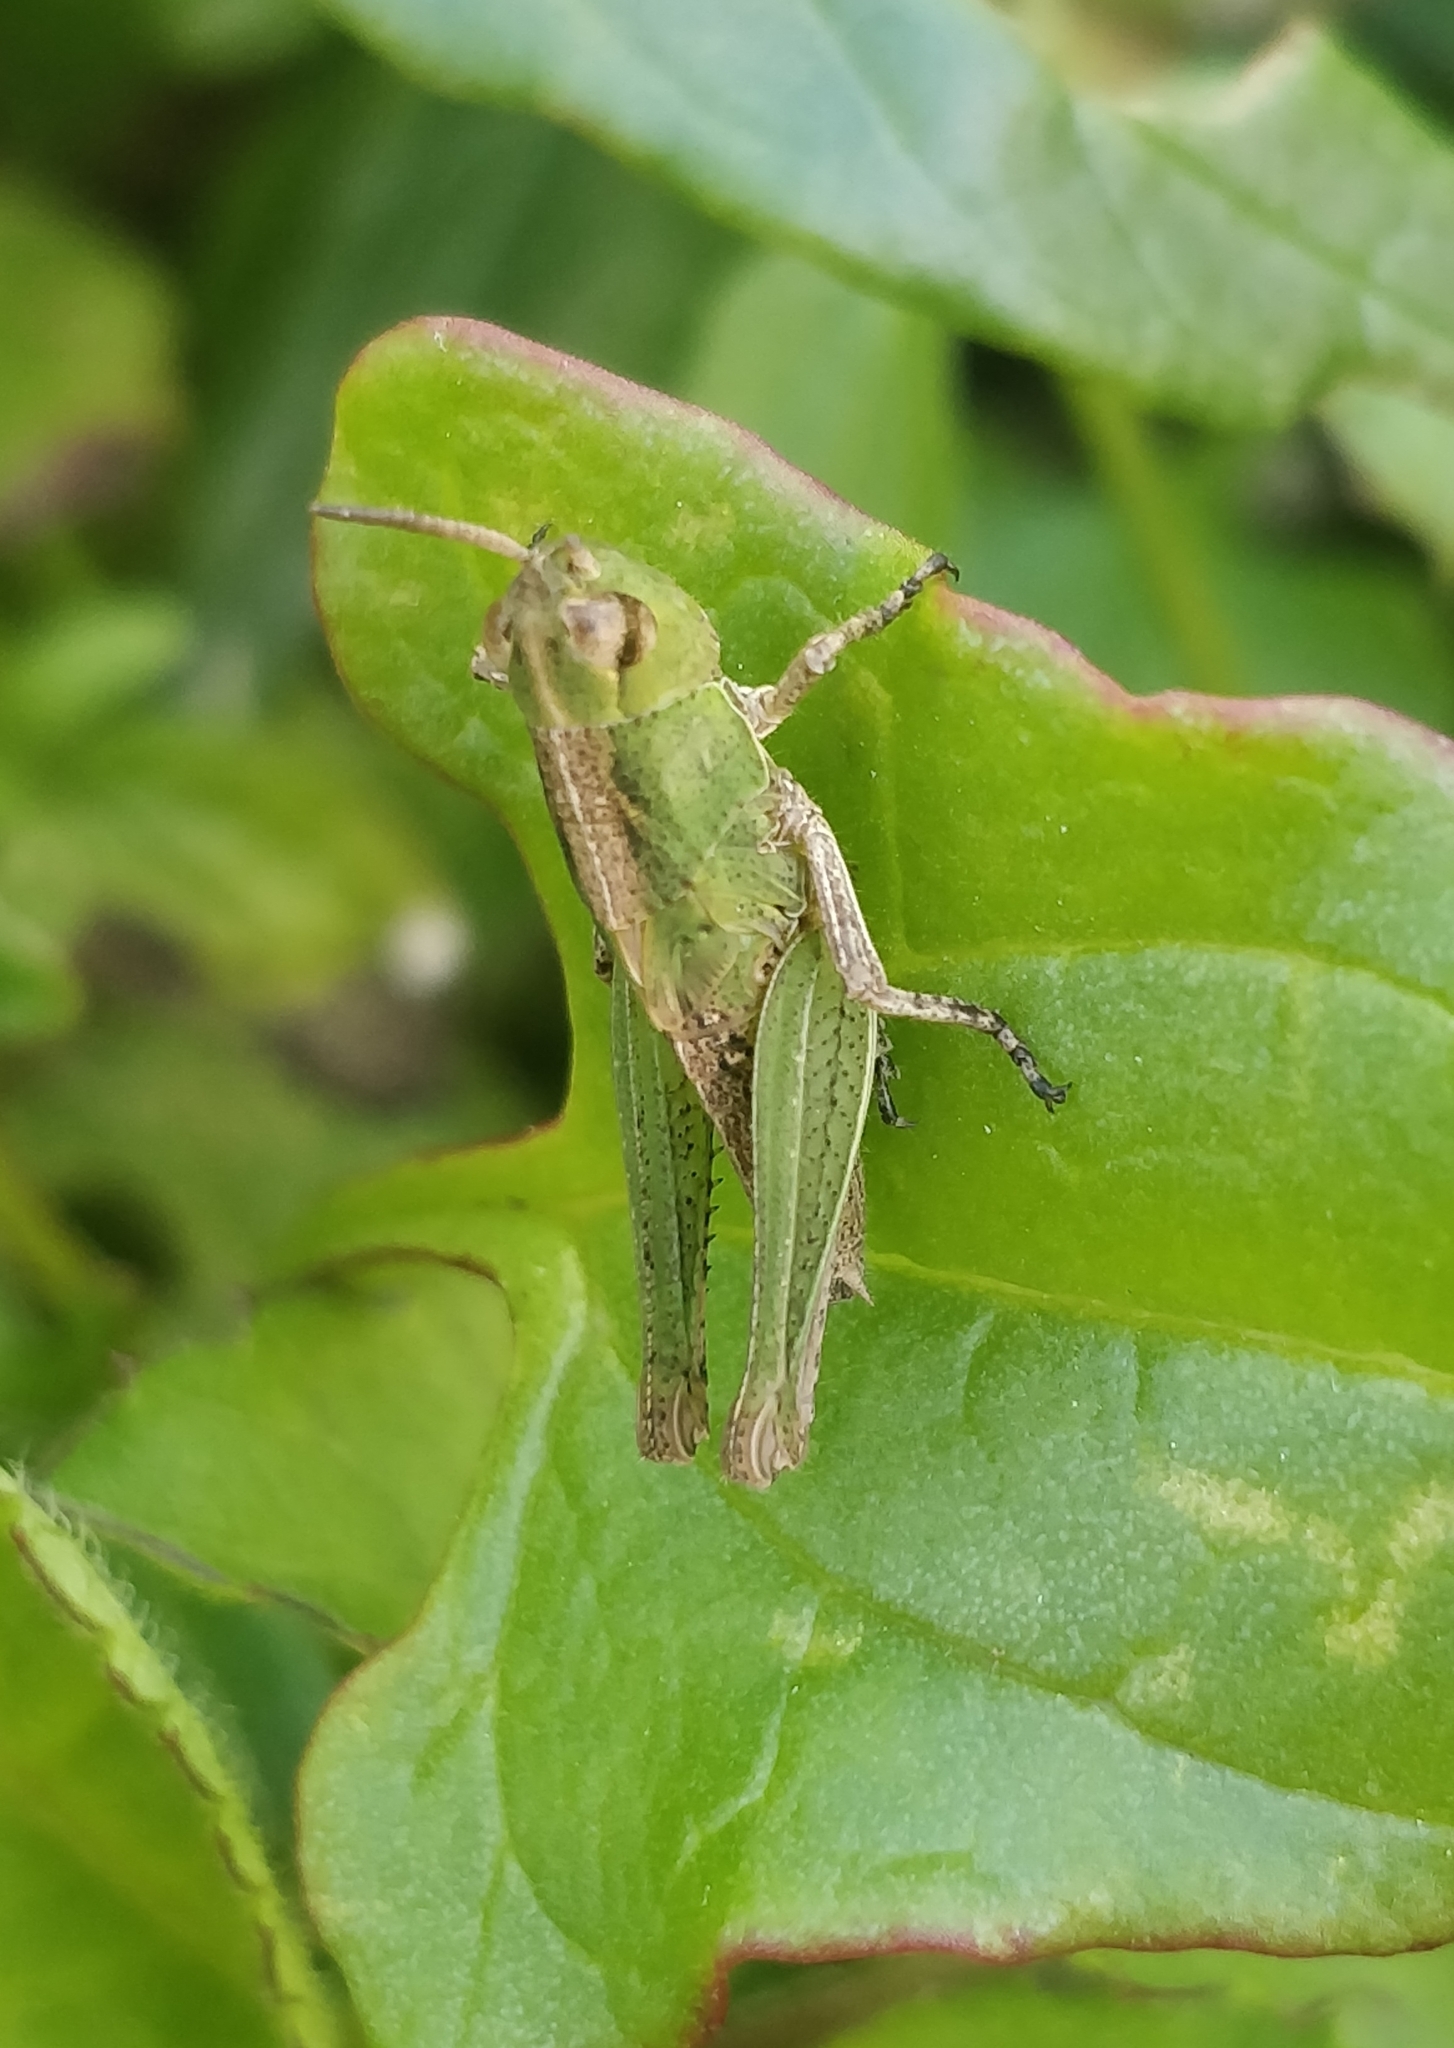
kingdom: Animalia
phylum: Arthropoda
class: Insecta
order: Orthoptera
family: Acrididae
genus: Aiolopus
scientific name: Aiolopus thalassinus
